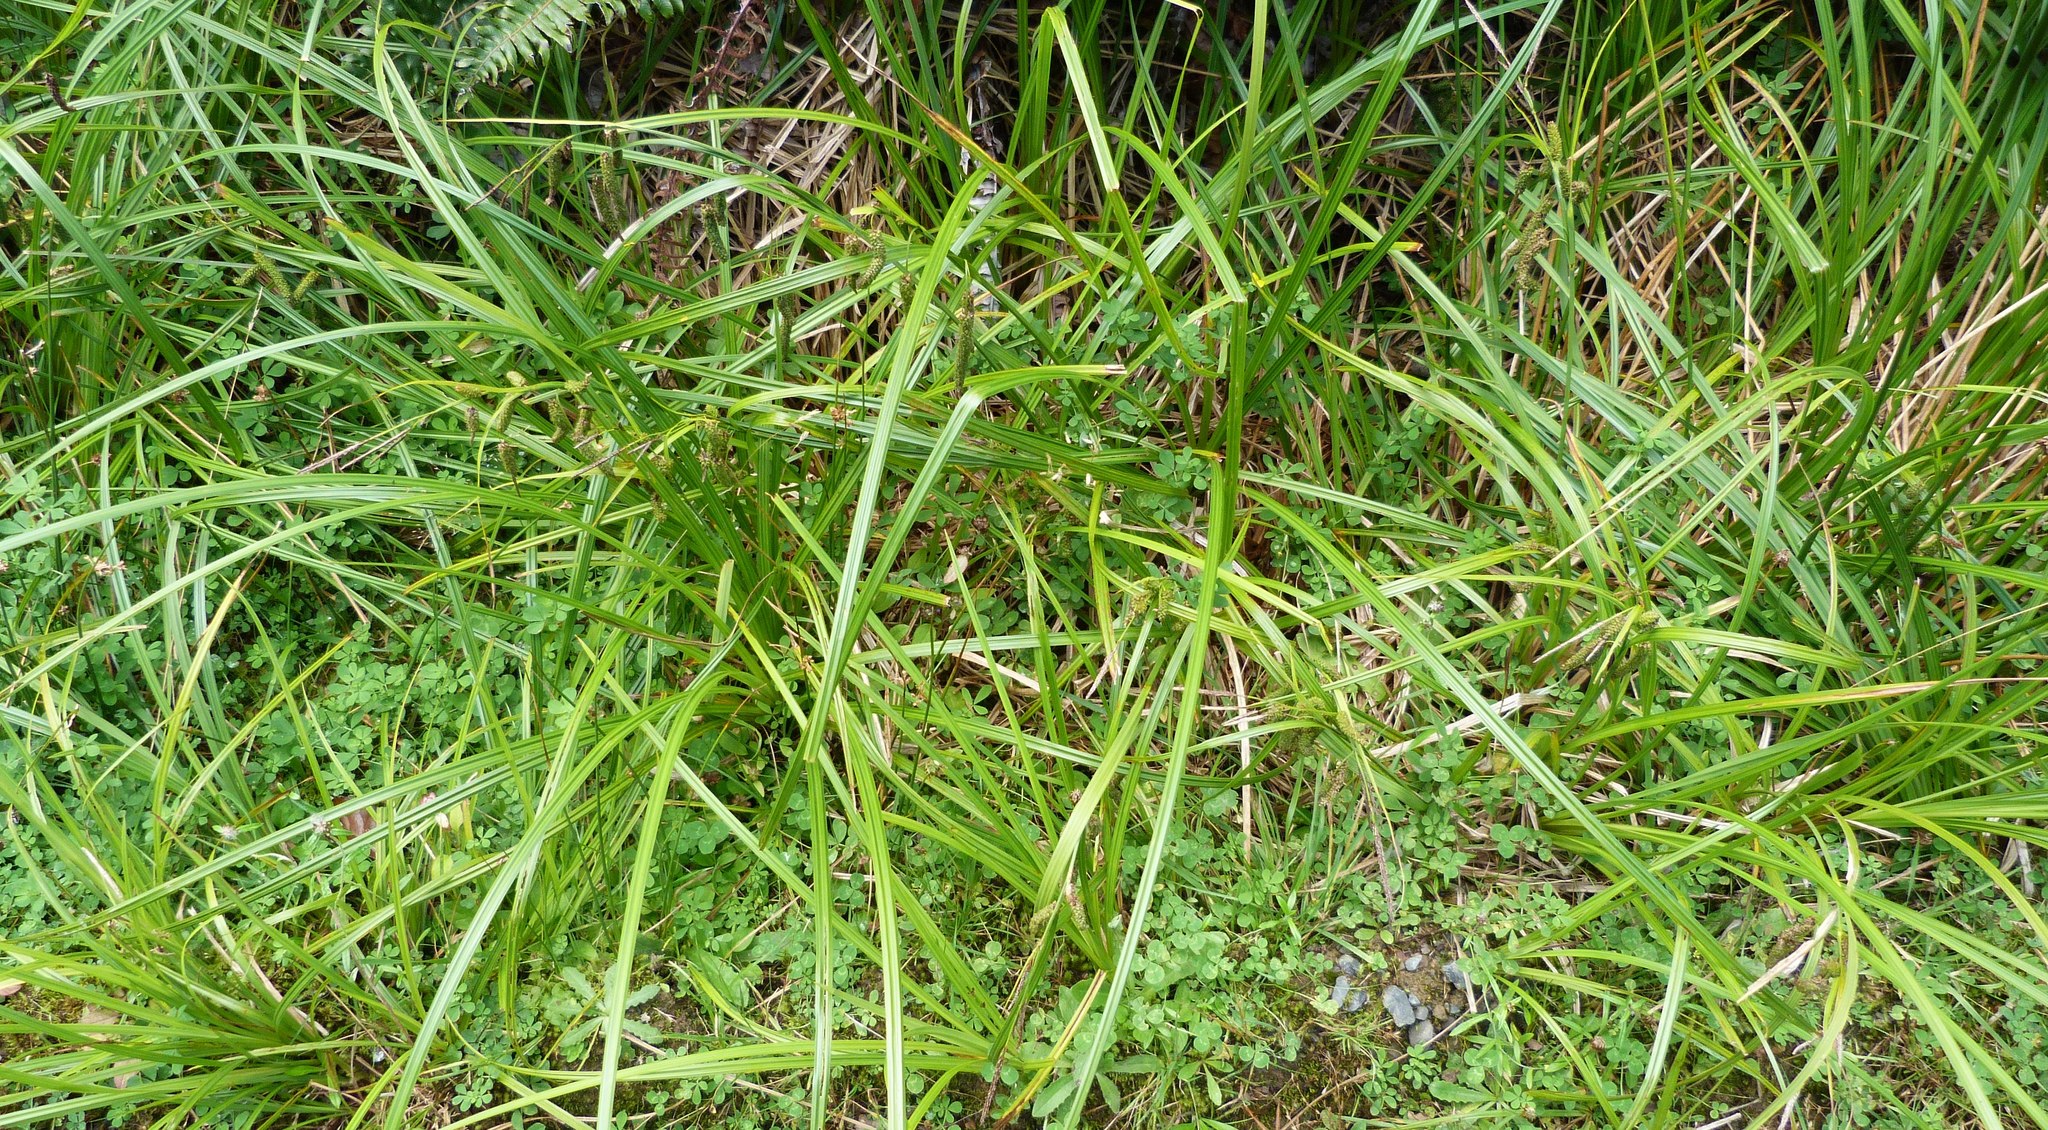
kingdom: Plantae
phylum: Tracheophyta
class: Liliopsida
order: Poales
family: Cyperaceae
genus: Carex
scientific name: Carex geminata
